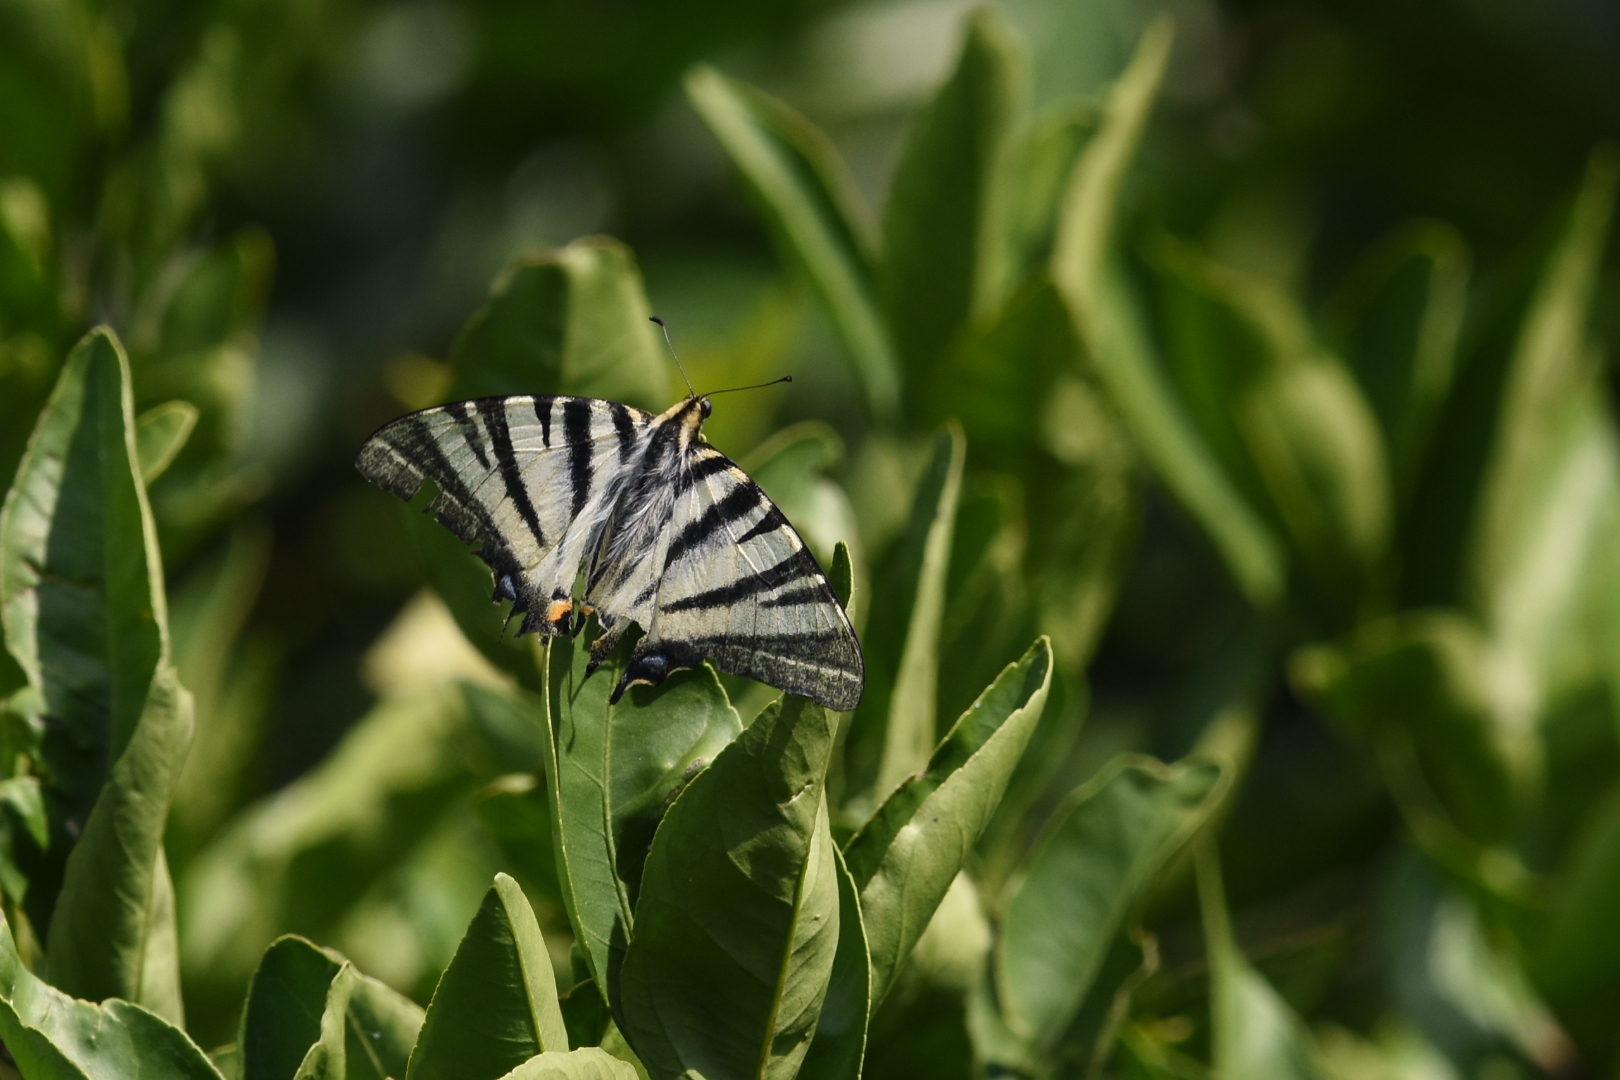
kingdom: Animalia
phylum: Arthropoda
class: Insecta
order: Lepidoptera
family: Papilionidae
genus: Iphiclides
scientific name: Iphiclides podalirius
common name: Scarce swallowtail
